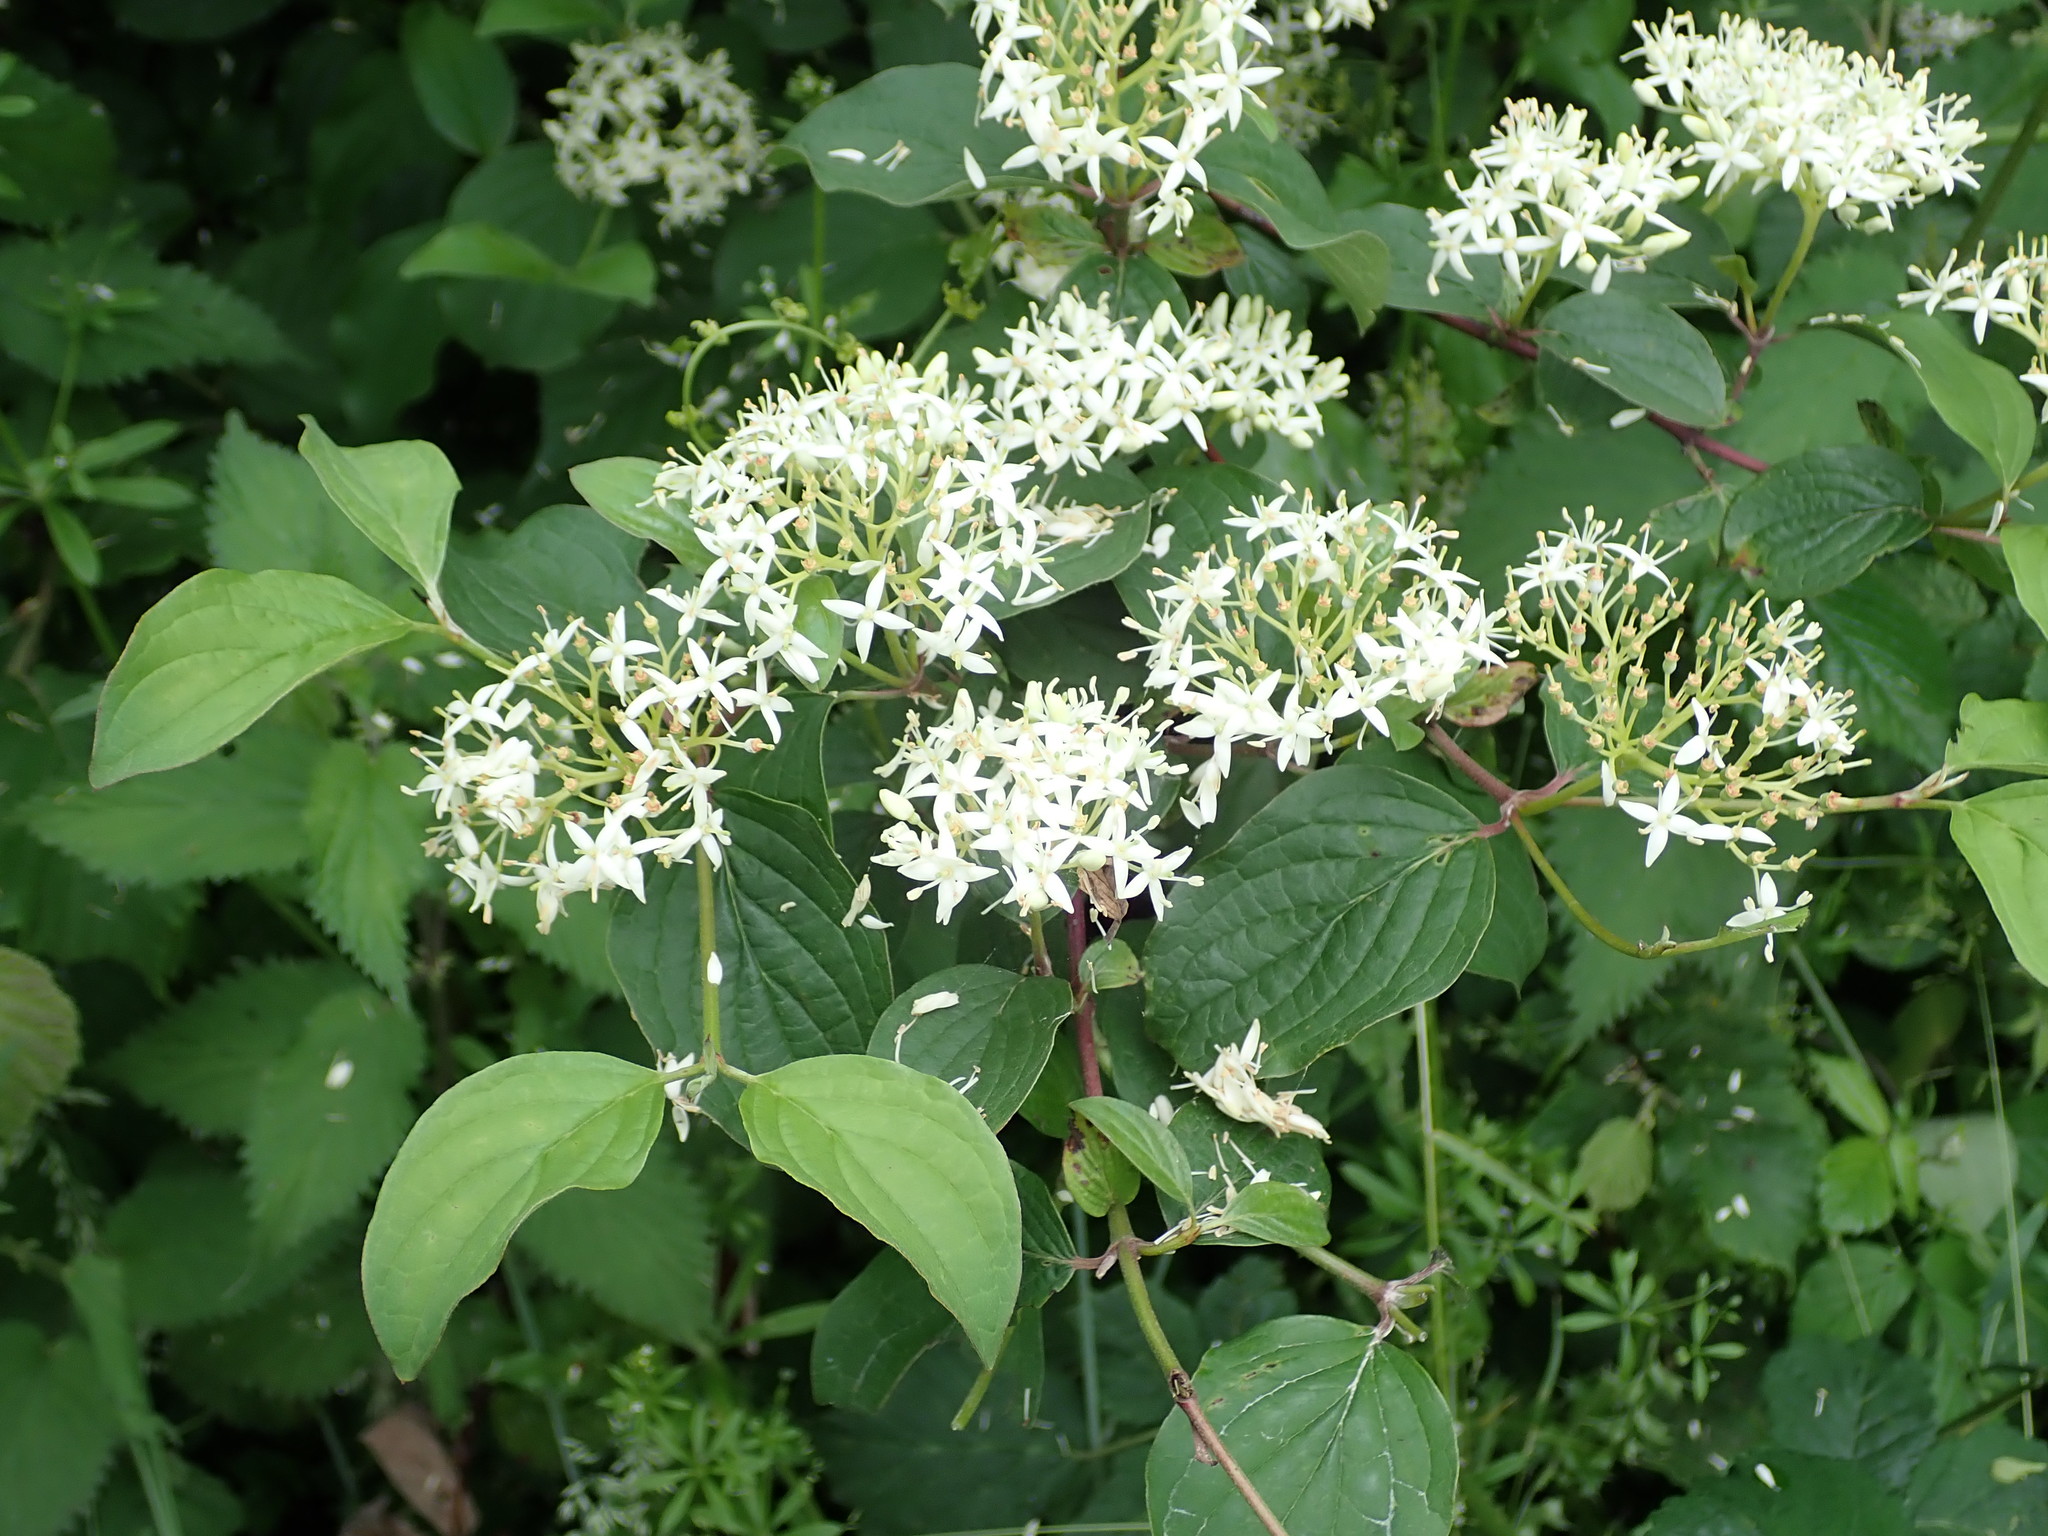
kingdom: Plantae
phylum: Tracheophyta
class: Magnoliopsida
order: Cornales
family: Cornaceae
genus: Cornus
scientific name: Cornus sanguinea
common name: Dogwood
